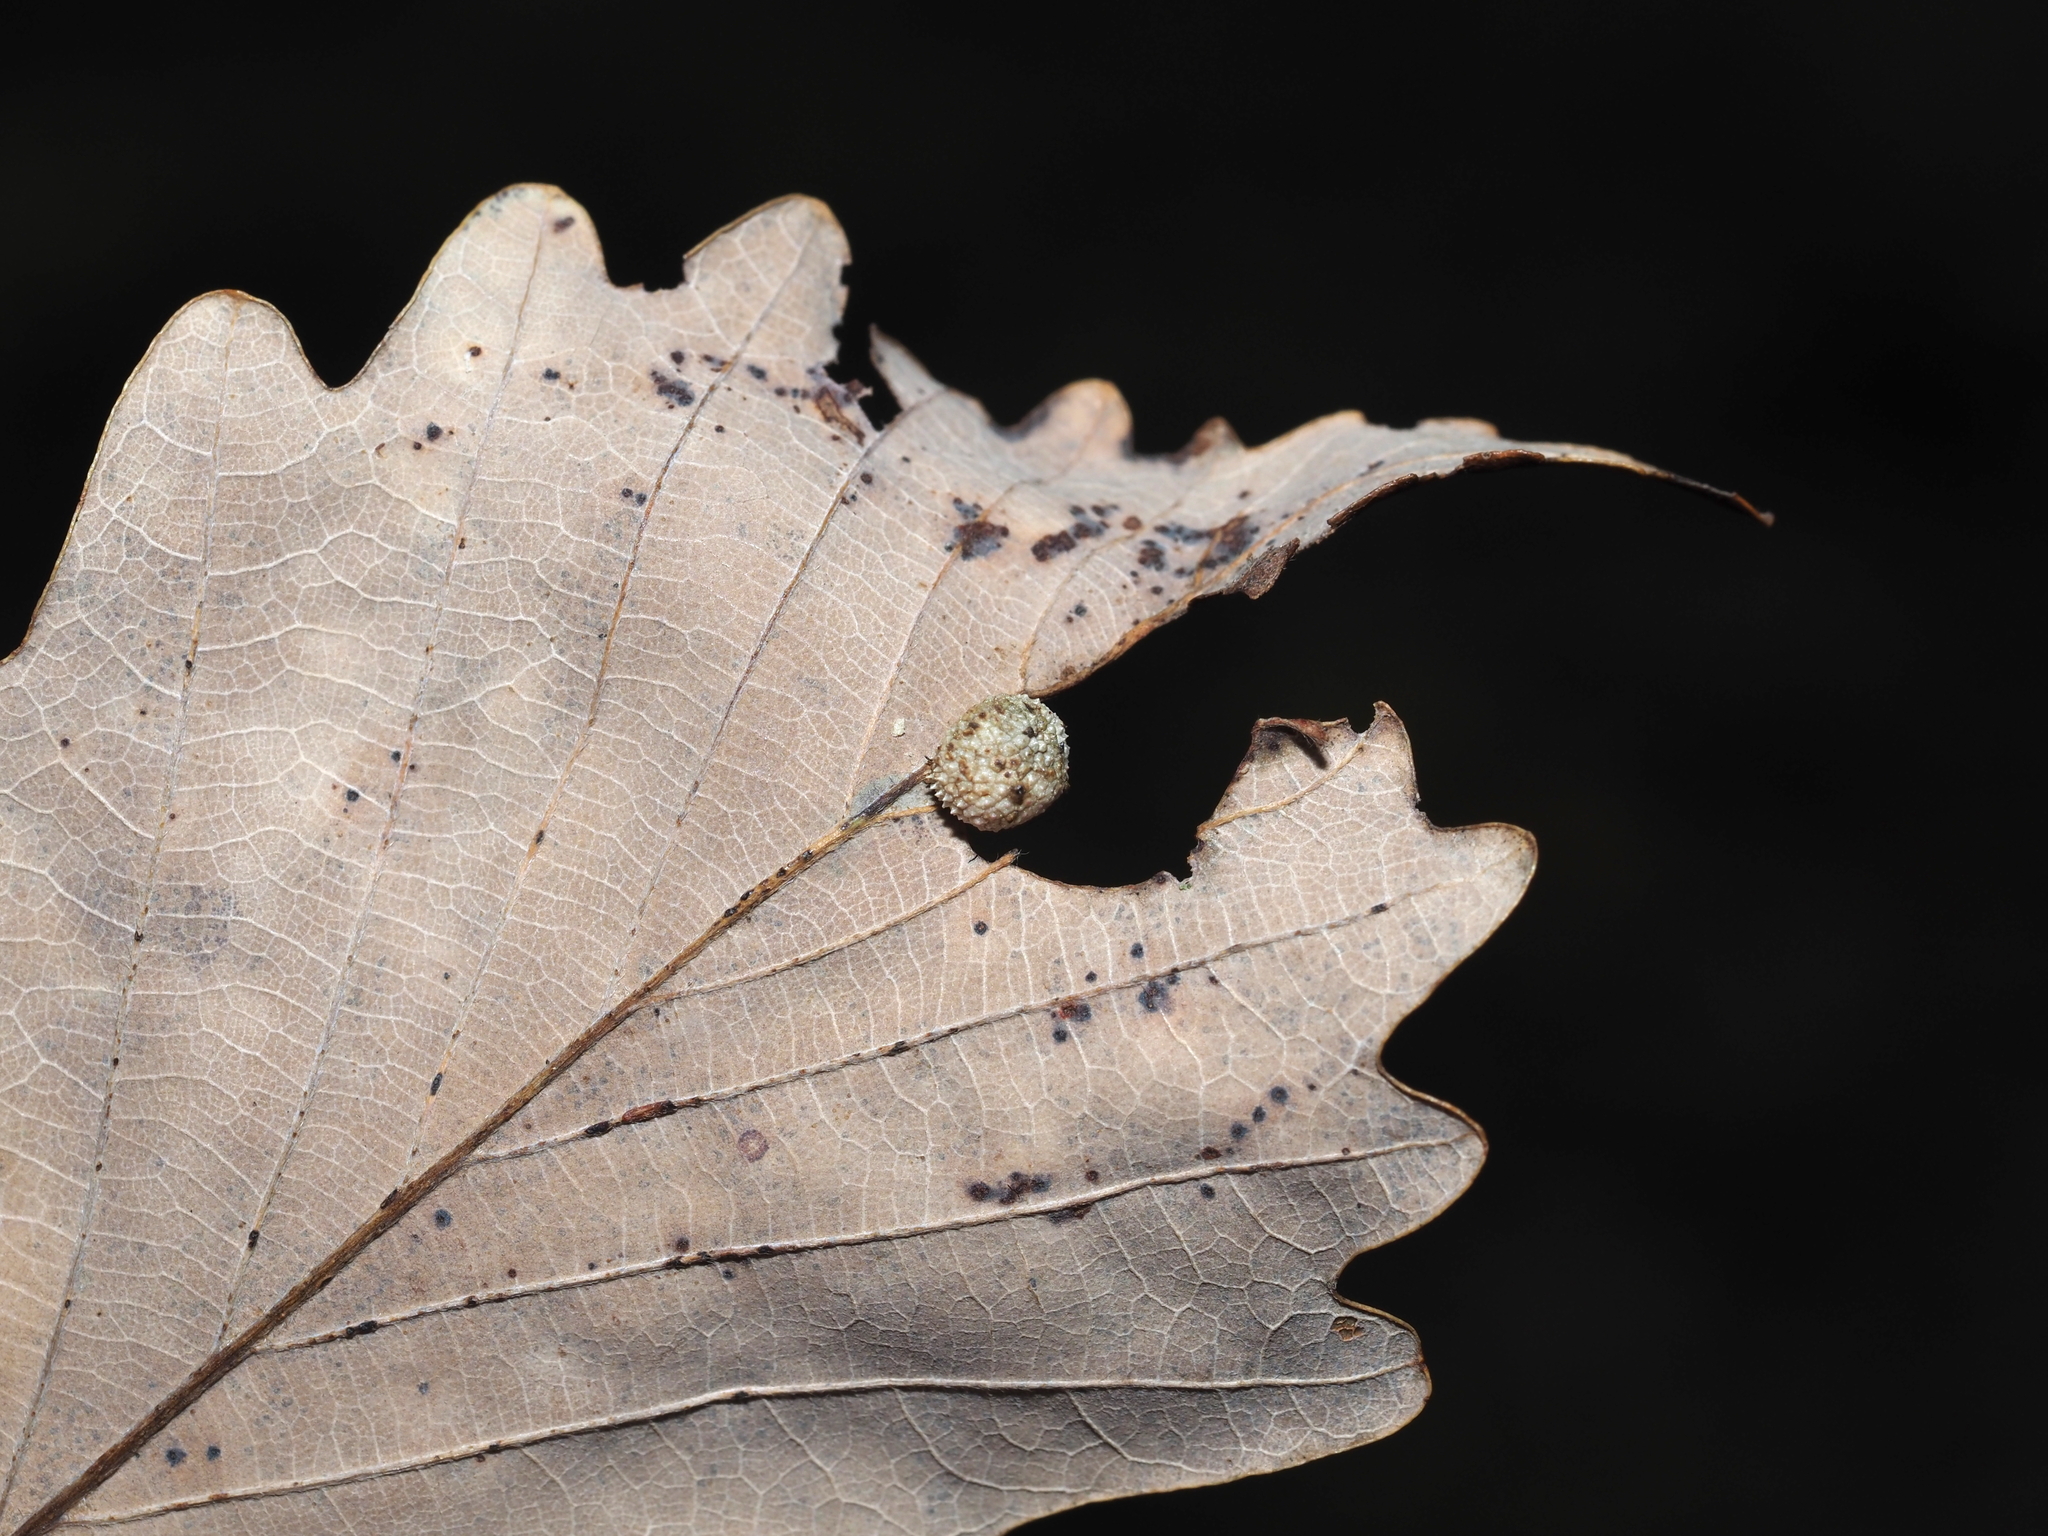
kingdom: Animalia
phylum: Arthropoda
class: Insecta
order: Hymenoptera
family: Cynipidae
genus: Acraspis
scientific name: Acraspis quercushirta
